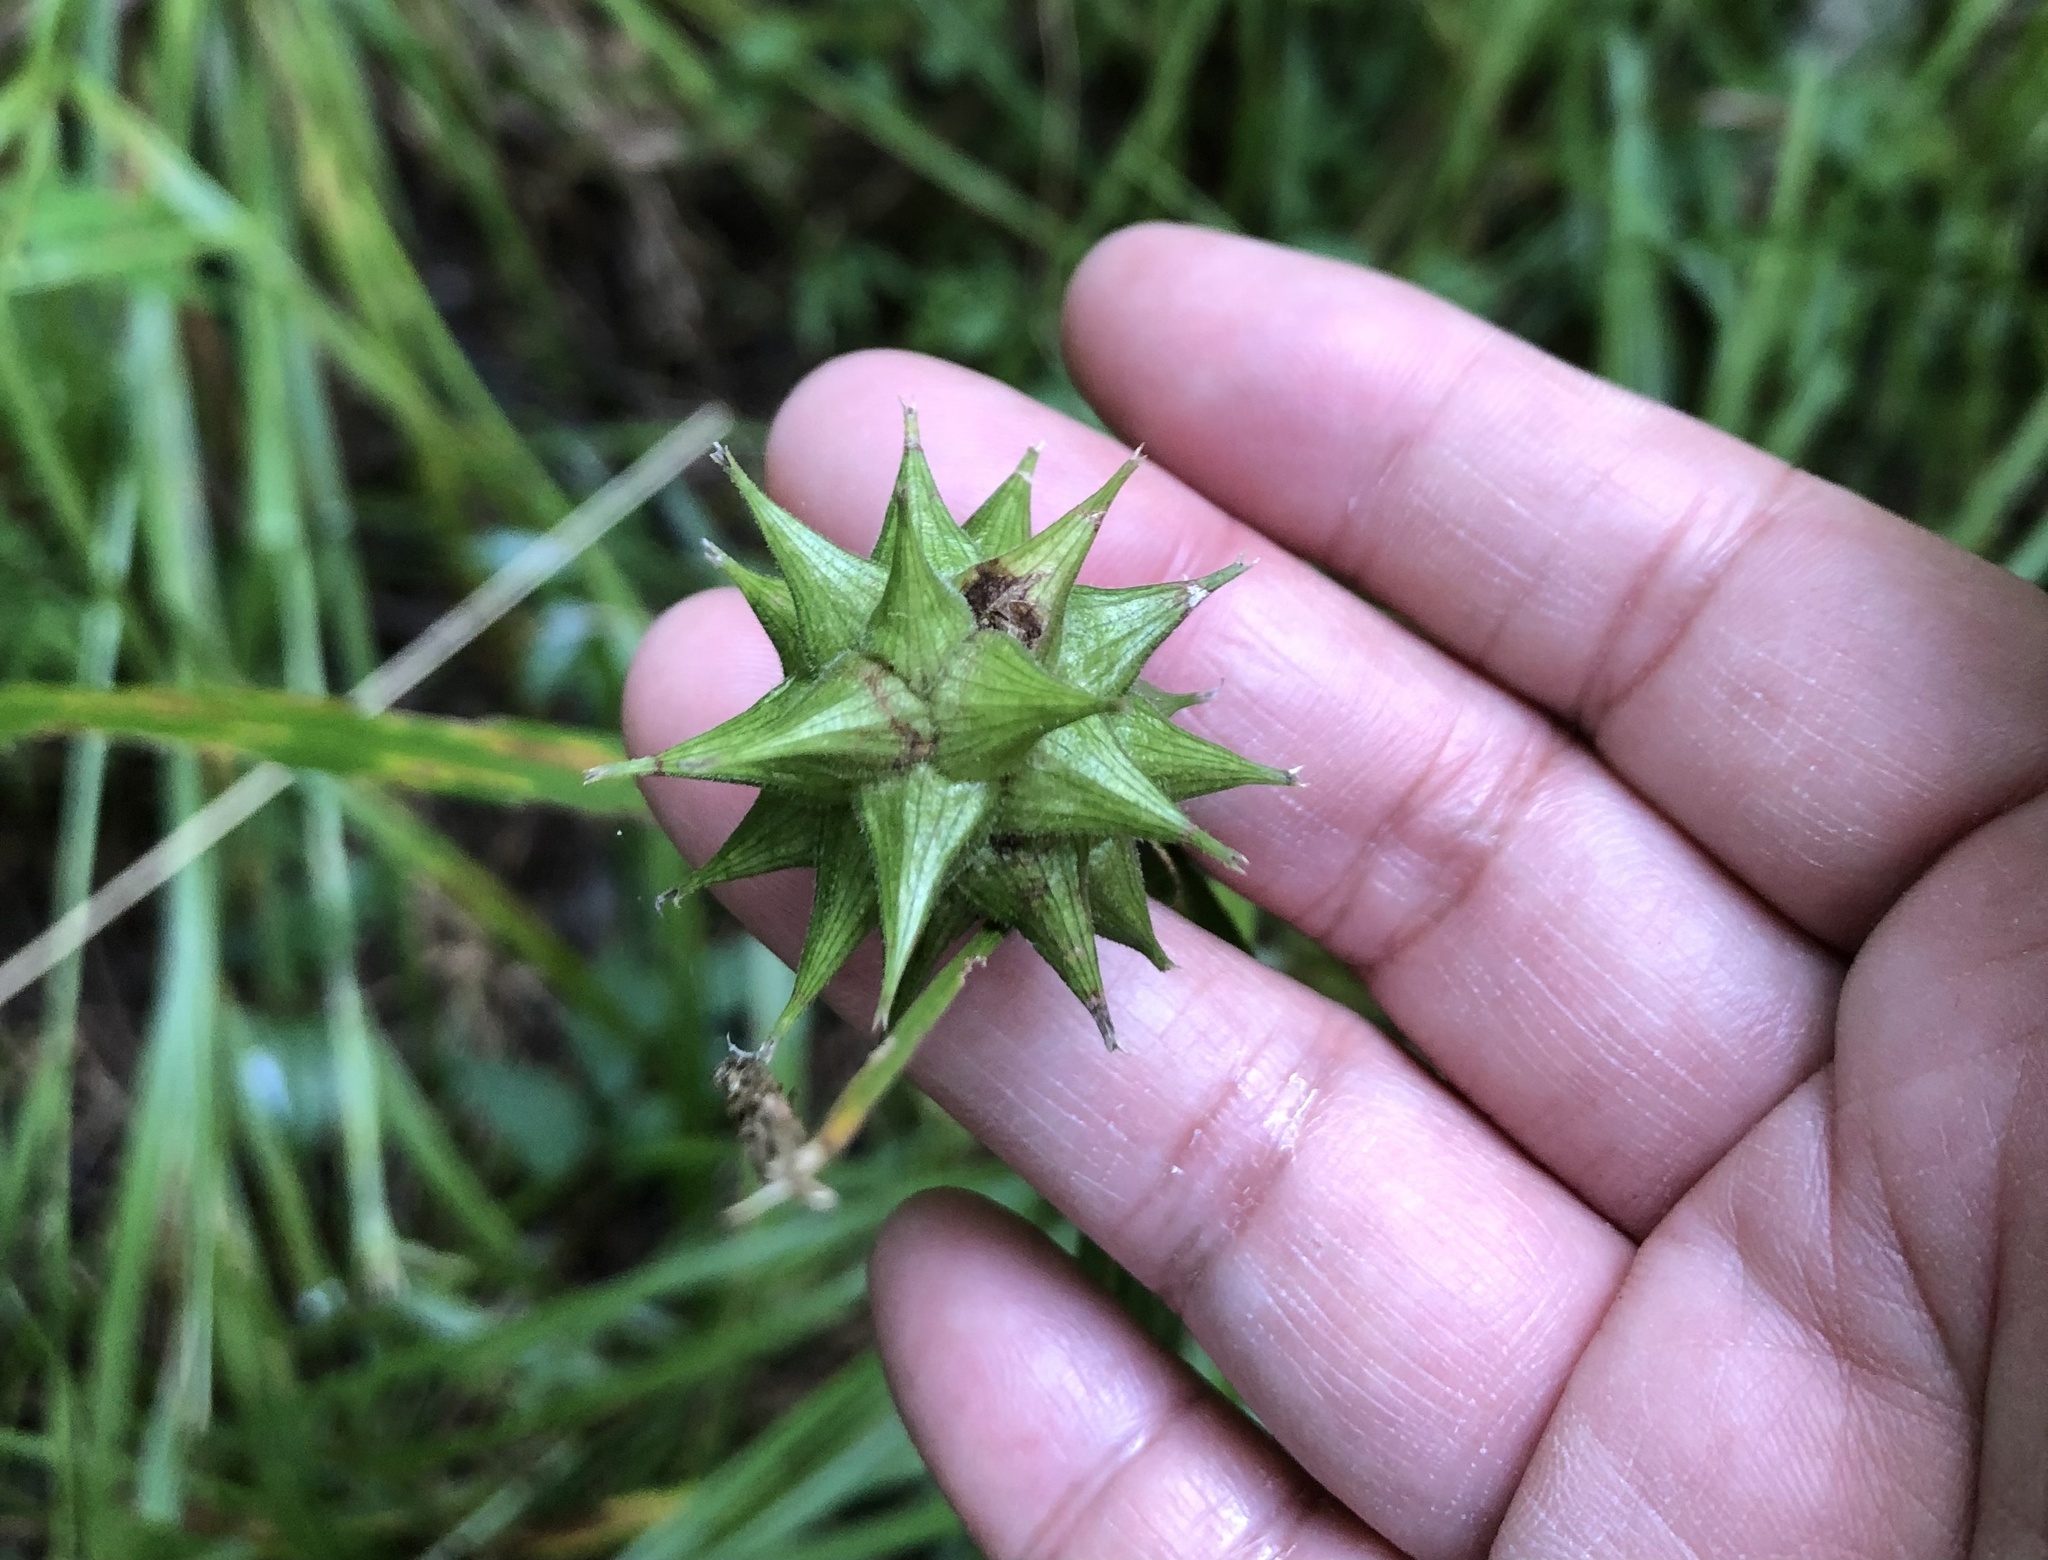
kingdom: Plantae
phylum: Tracheophyta
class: Liliopsida
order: Poales
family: Cyperaceae
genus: Carex
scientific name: Carex grayi
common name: Asa gray's sedge
